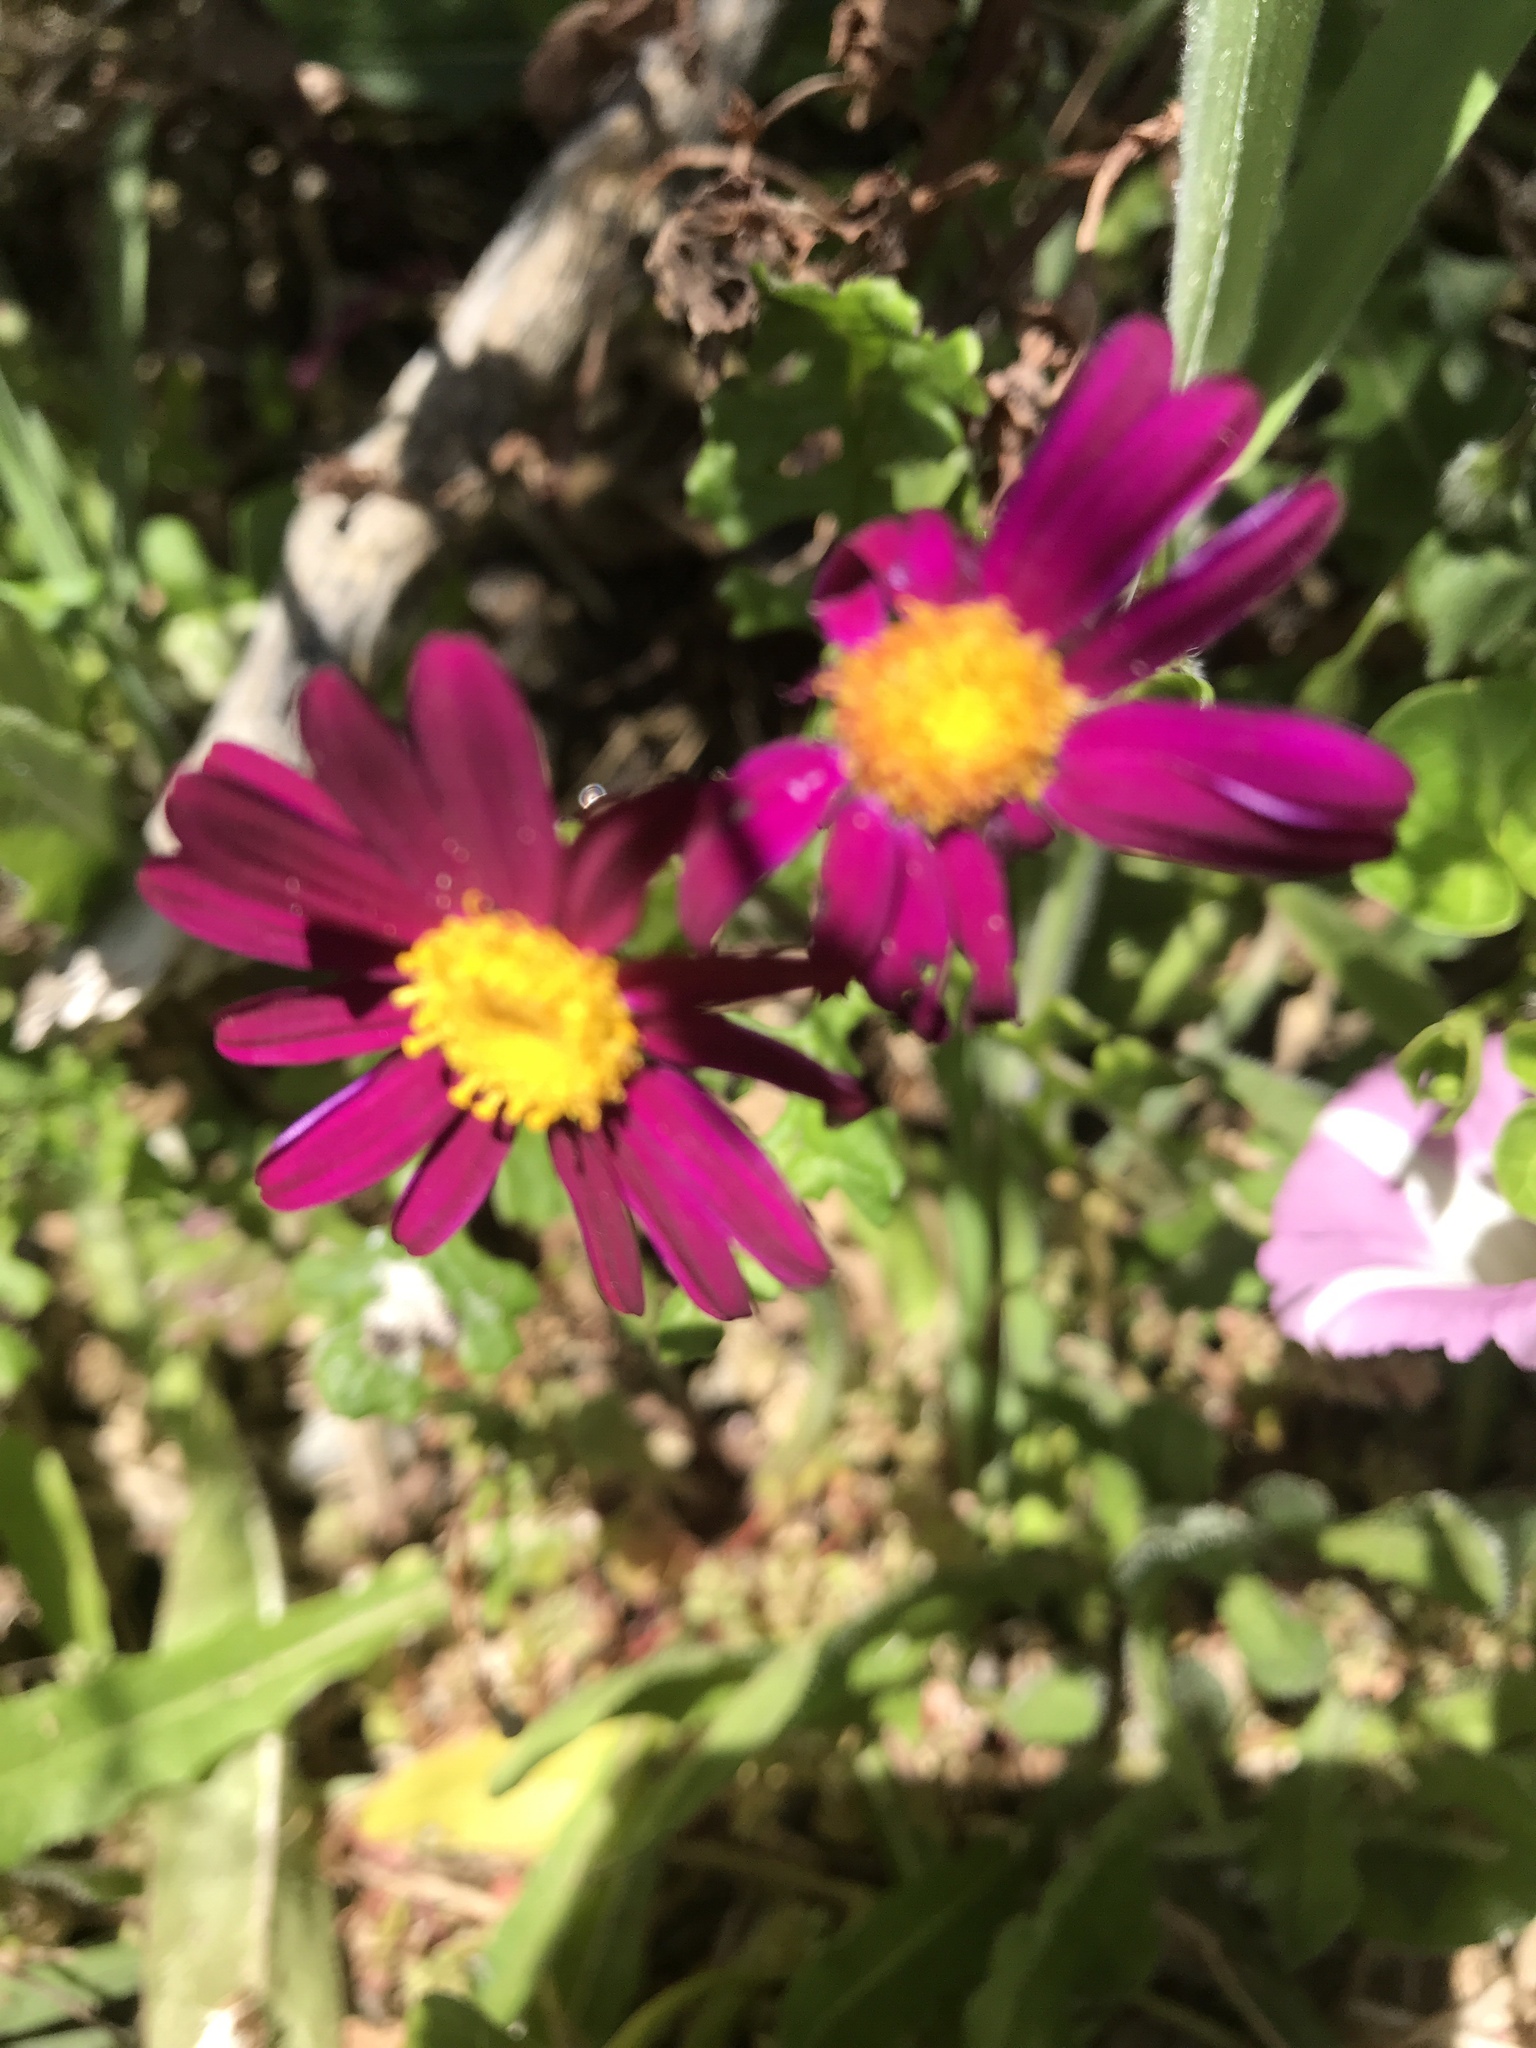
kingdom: Plantae
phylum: Tracheophyta
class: Magnoliopsida
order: Asterales
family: Asteraceae
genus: Senecio
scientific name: Senecio elegans
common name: Purple groundsel
